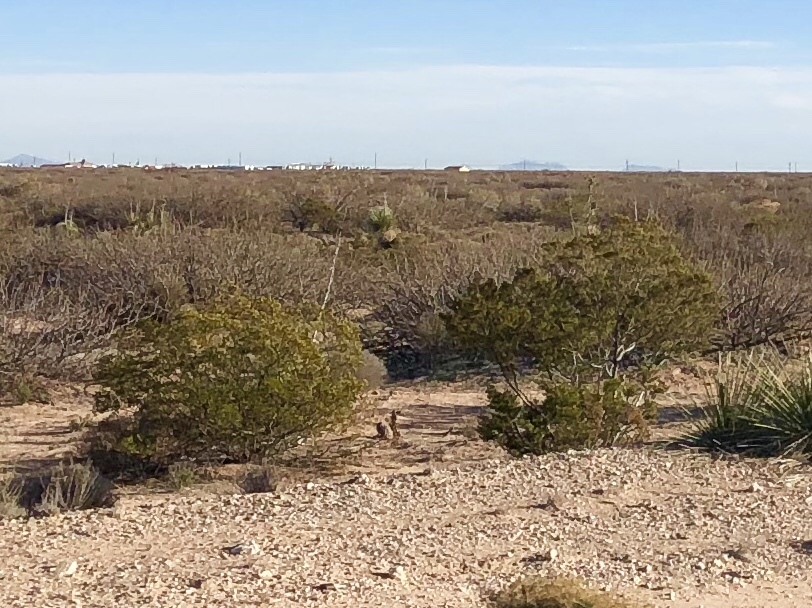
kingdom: Plantae
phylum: Tracheophyta
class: Magnoliopsida
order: Zygophyllales
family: Zygophyllaceae
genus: Larrea
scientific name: Larrea tridentata
